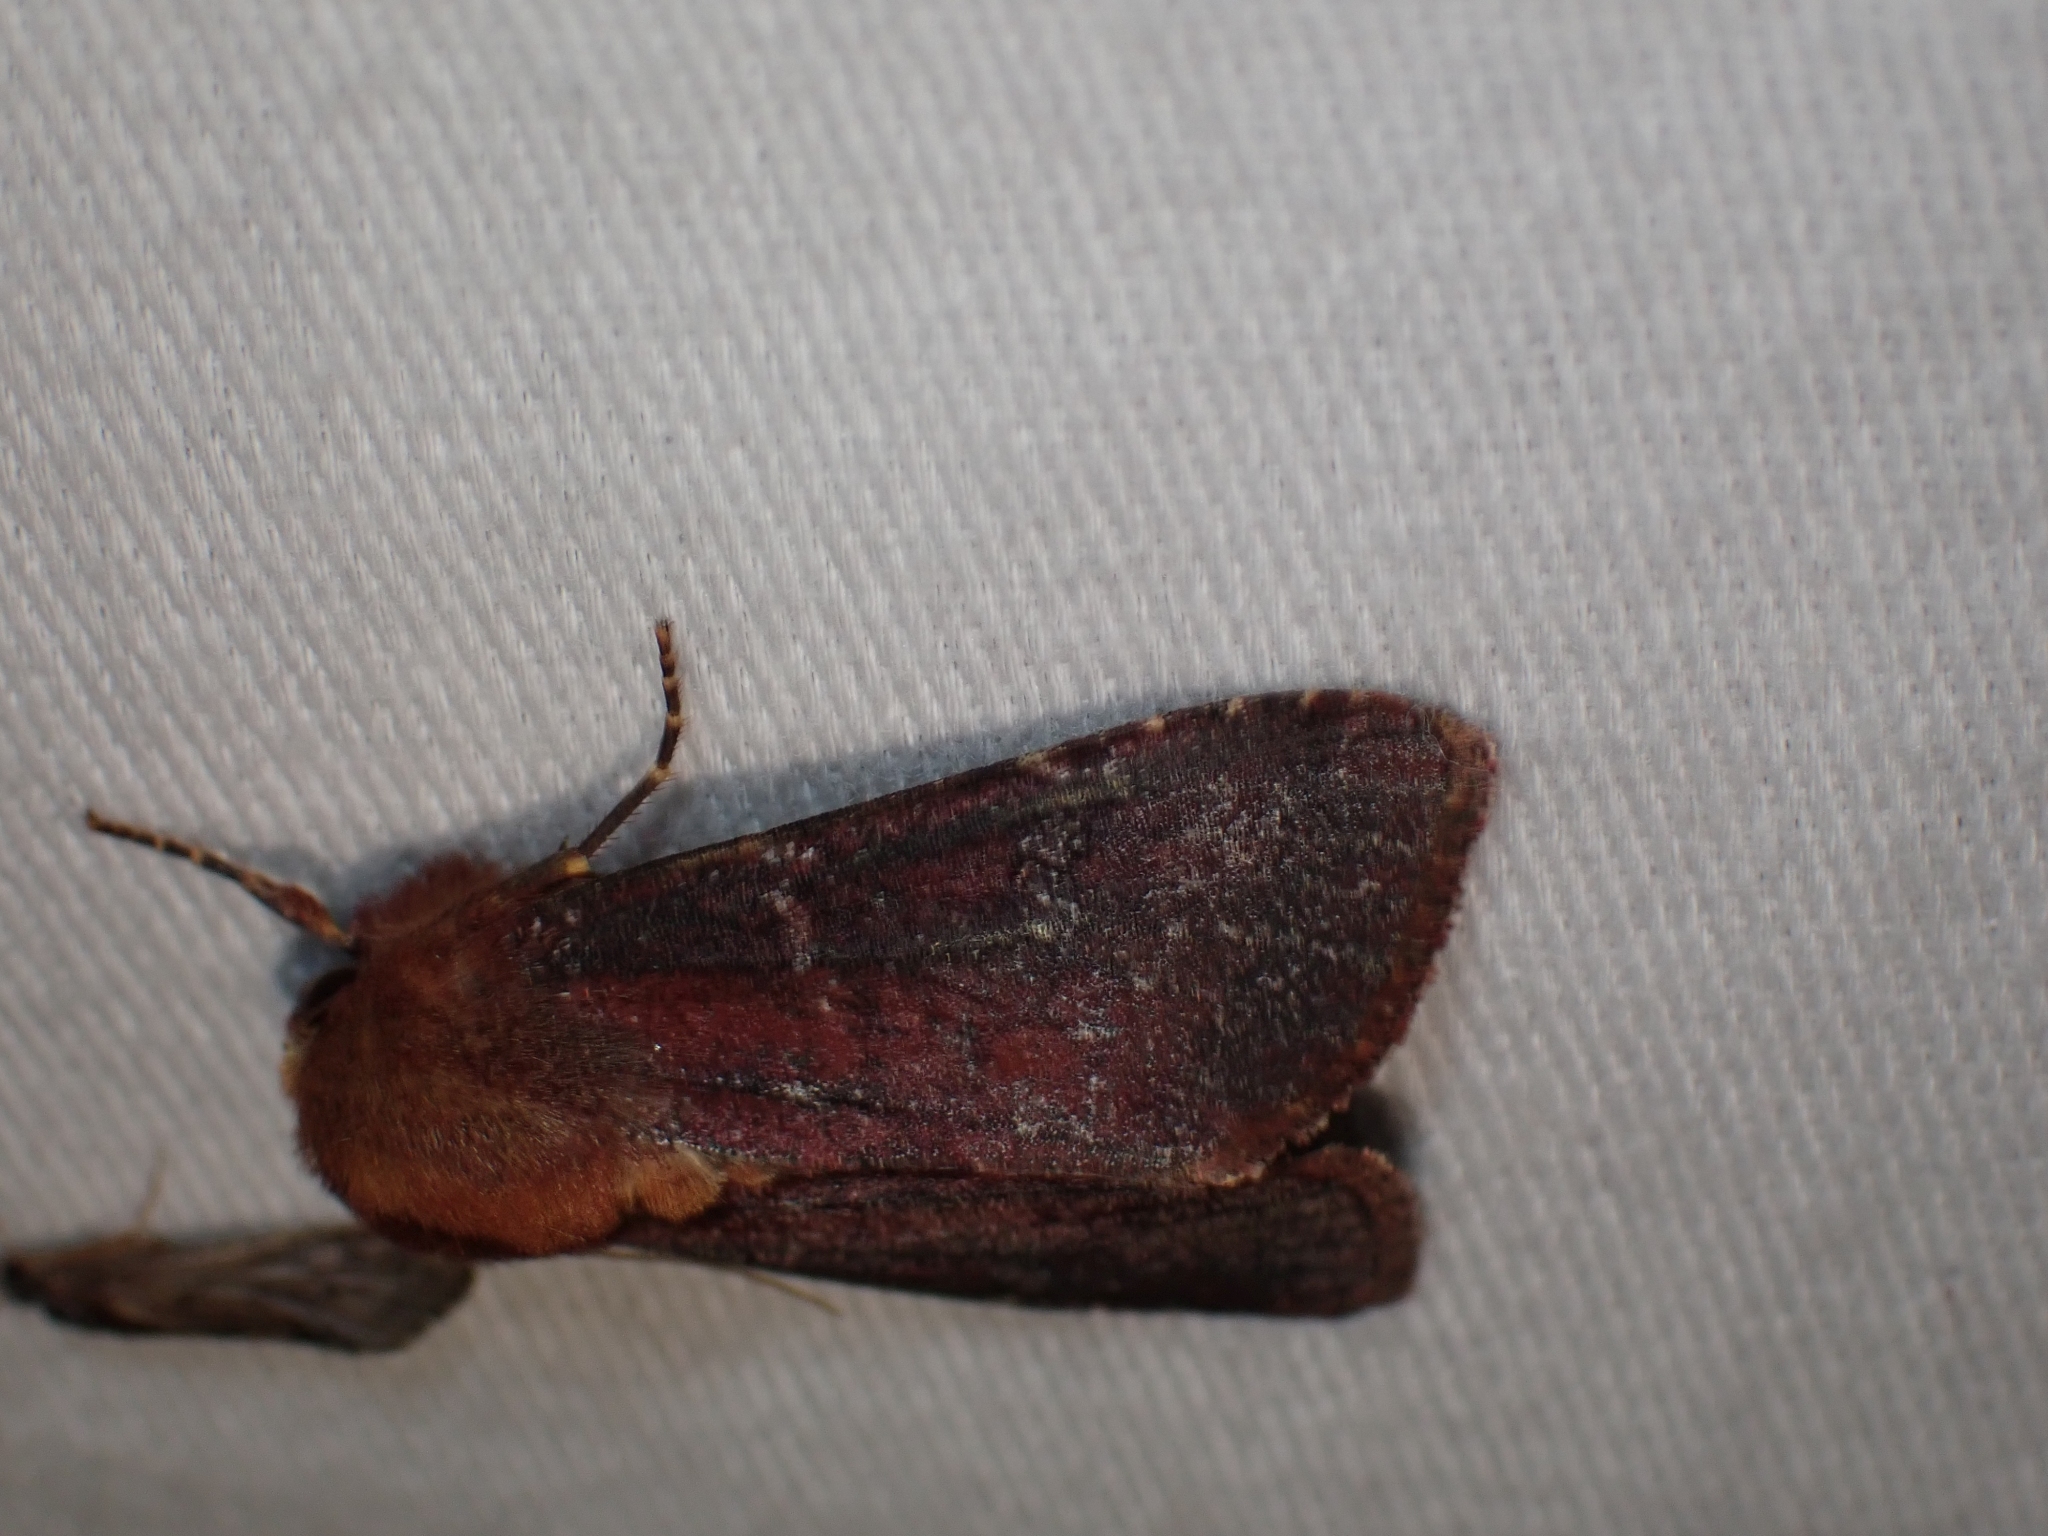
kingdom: Animalia
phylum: Arthropoda
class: Insecta
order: Lepidoptera
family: Noctuidae
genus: Sideridis
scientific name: Sideridis maryx
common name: Maroonwing moth
